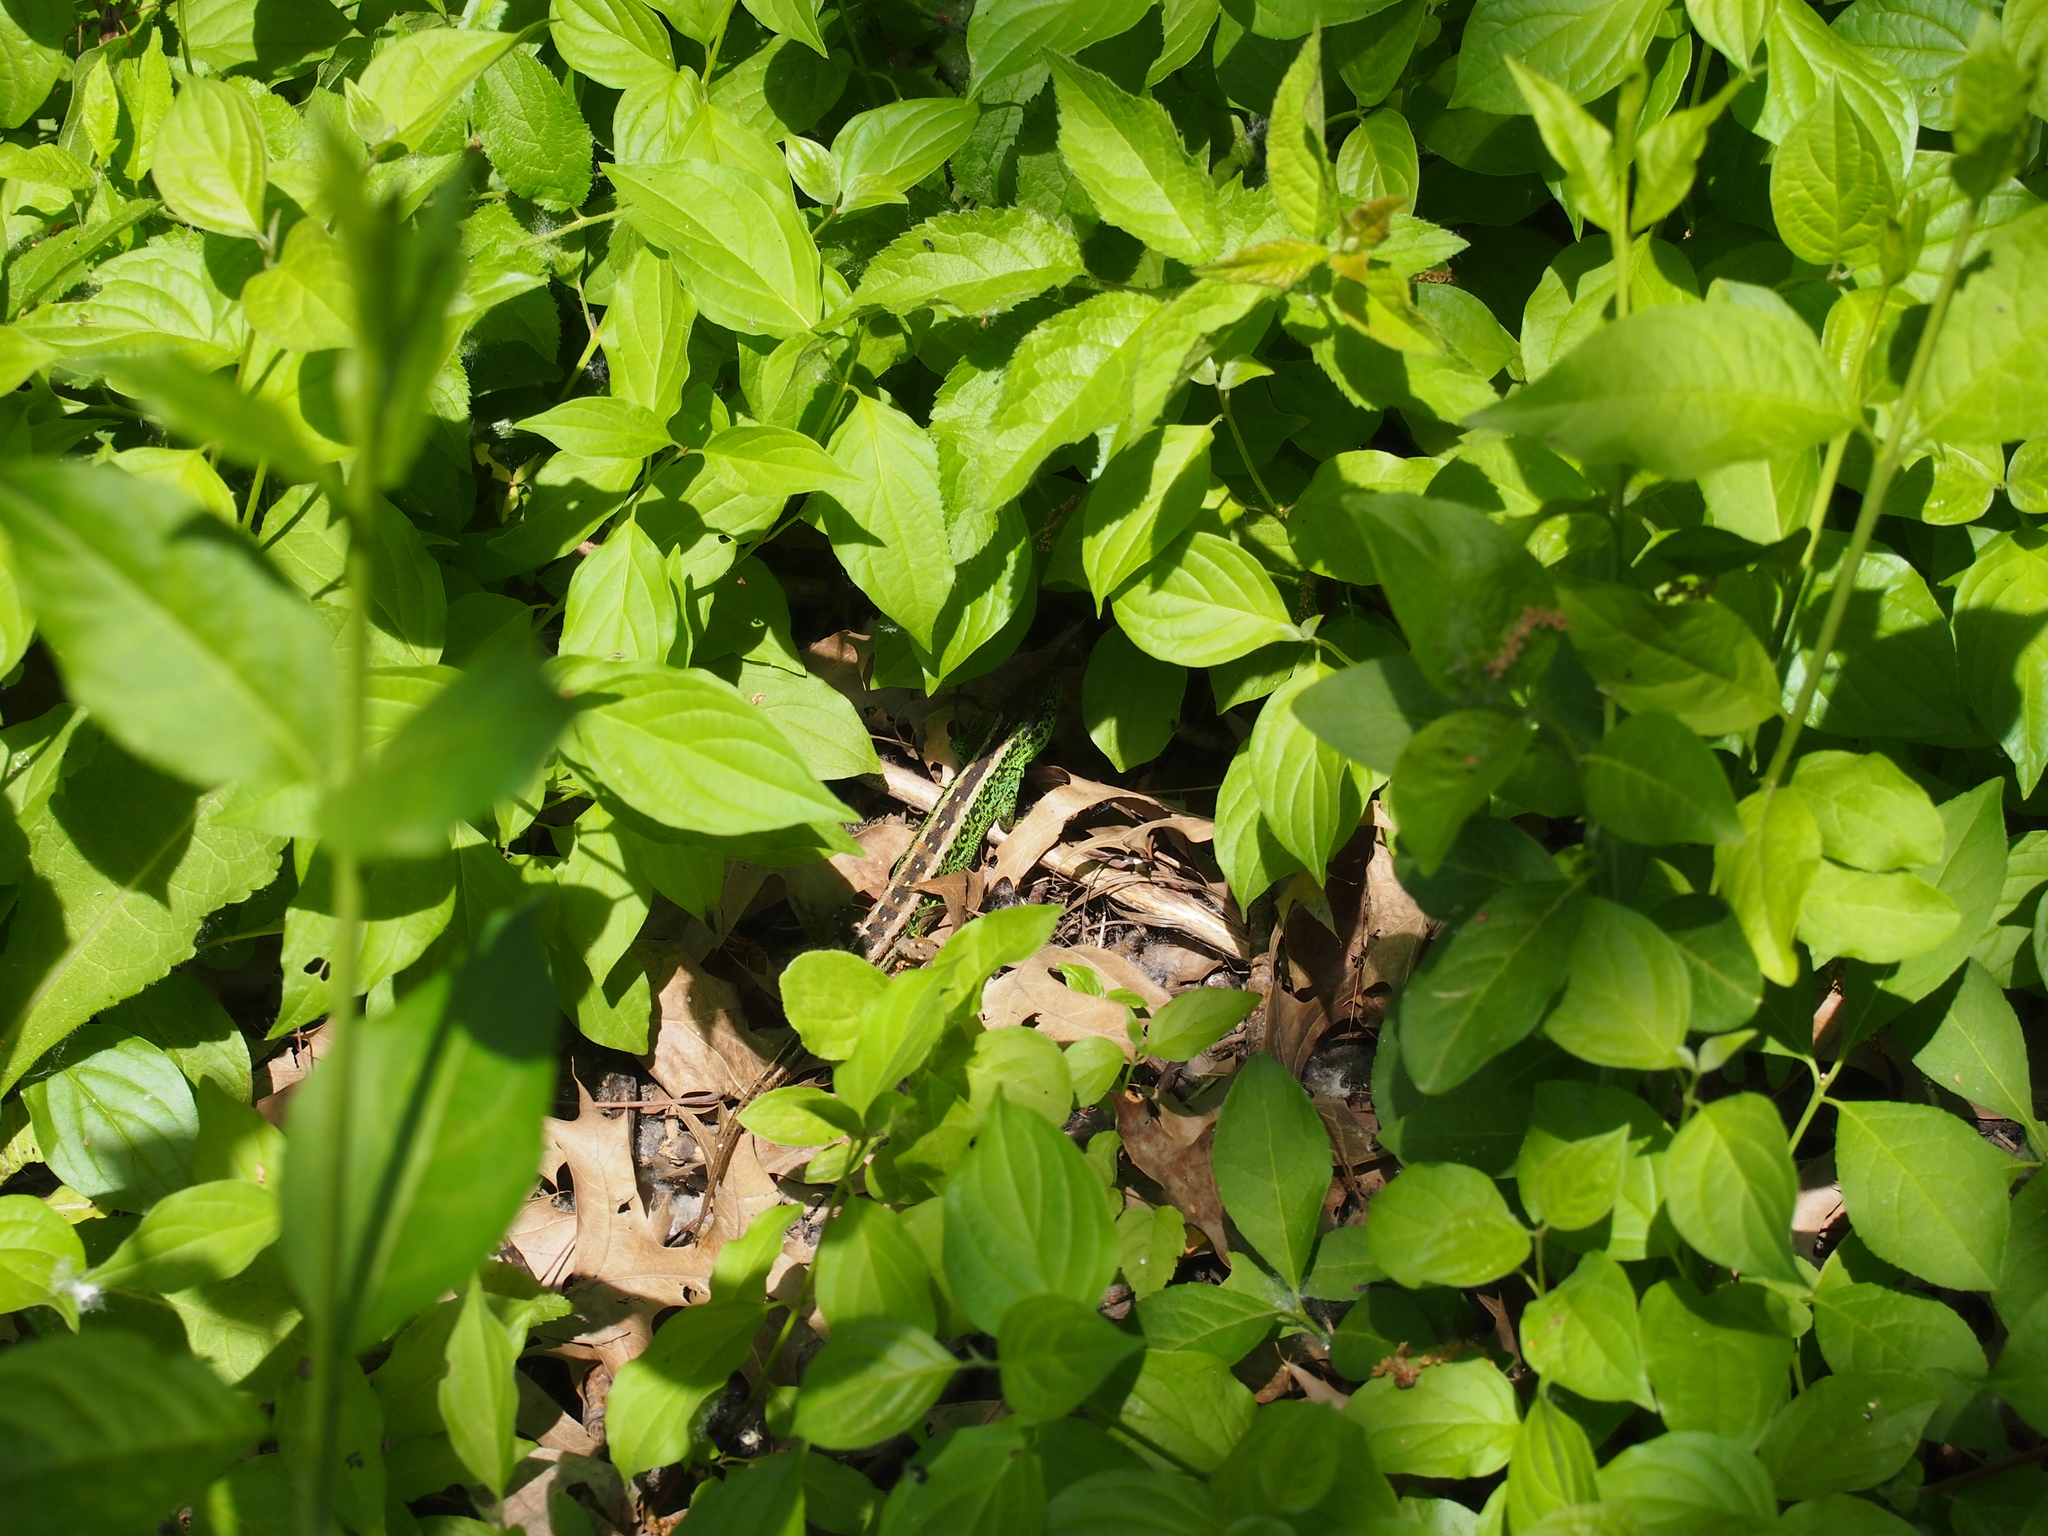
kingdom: Animalia
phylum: Chordata
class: Squamata
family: Lacertidae
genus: Lacerta
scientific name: Lacerta agilis
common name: Sand lizard
